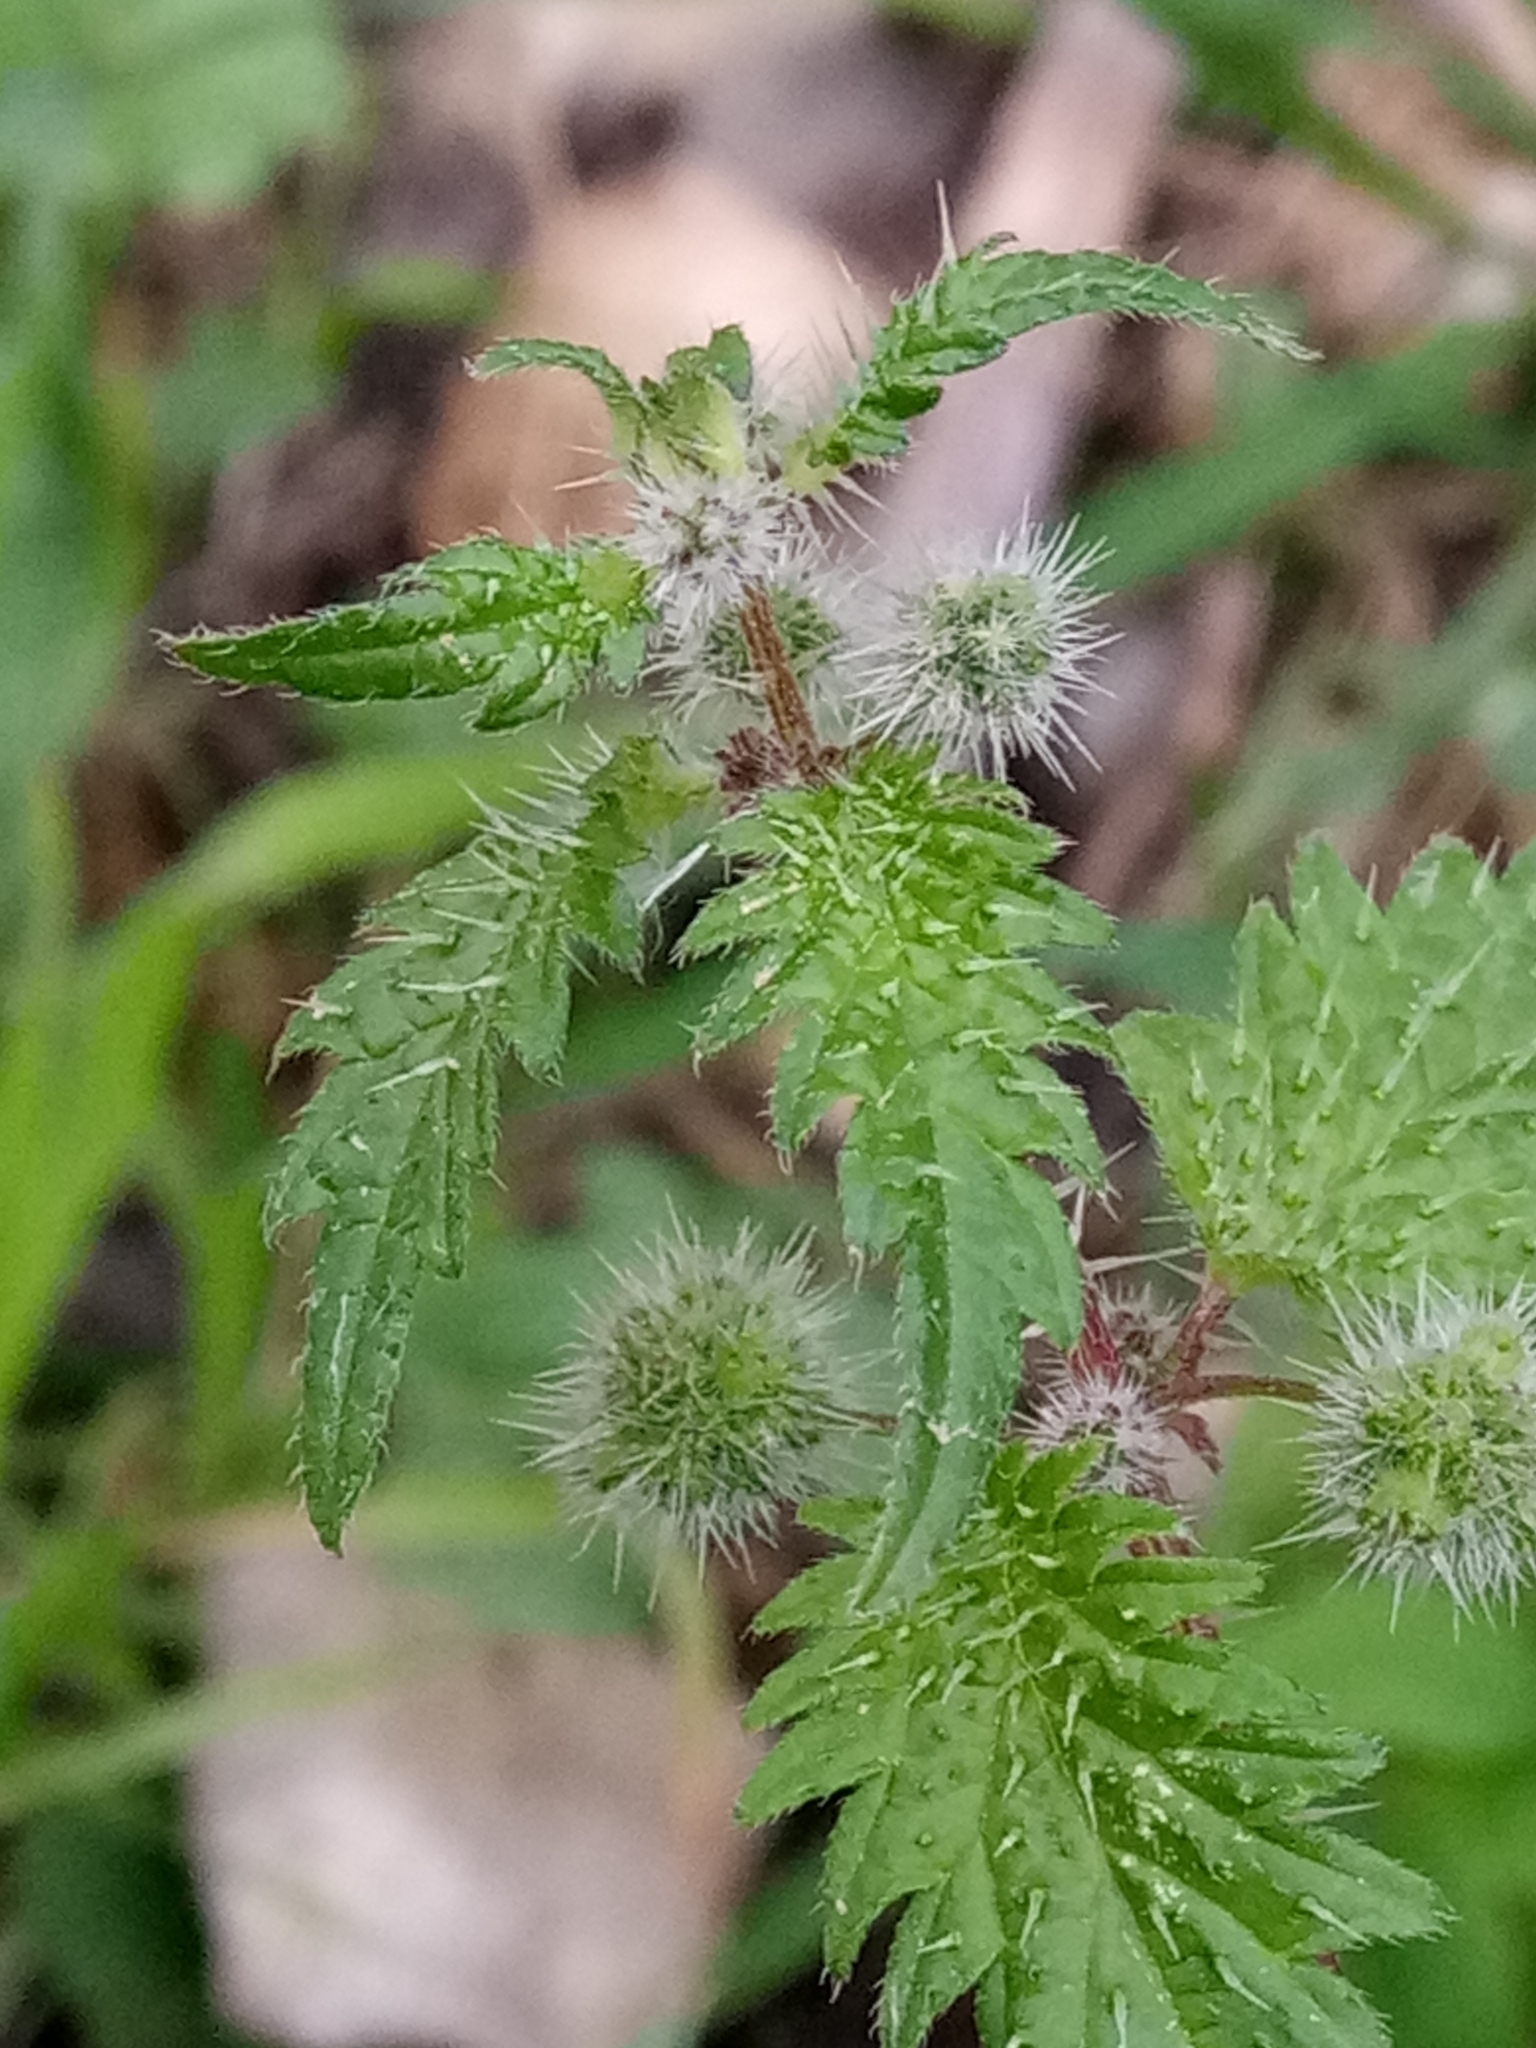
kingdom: Plantae
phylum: Tracheophyta
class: Magnoliopsida
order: Rosales
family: Urticaceae
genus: Urtica
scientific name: Urtica pilulifera
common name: Roman nettle
